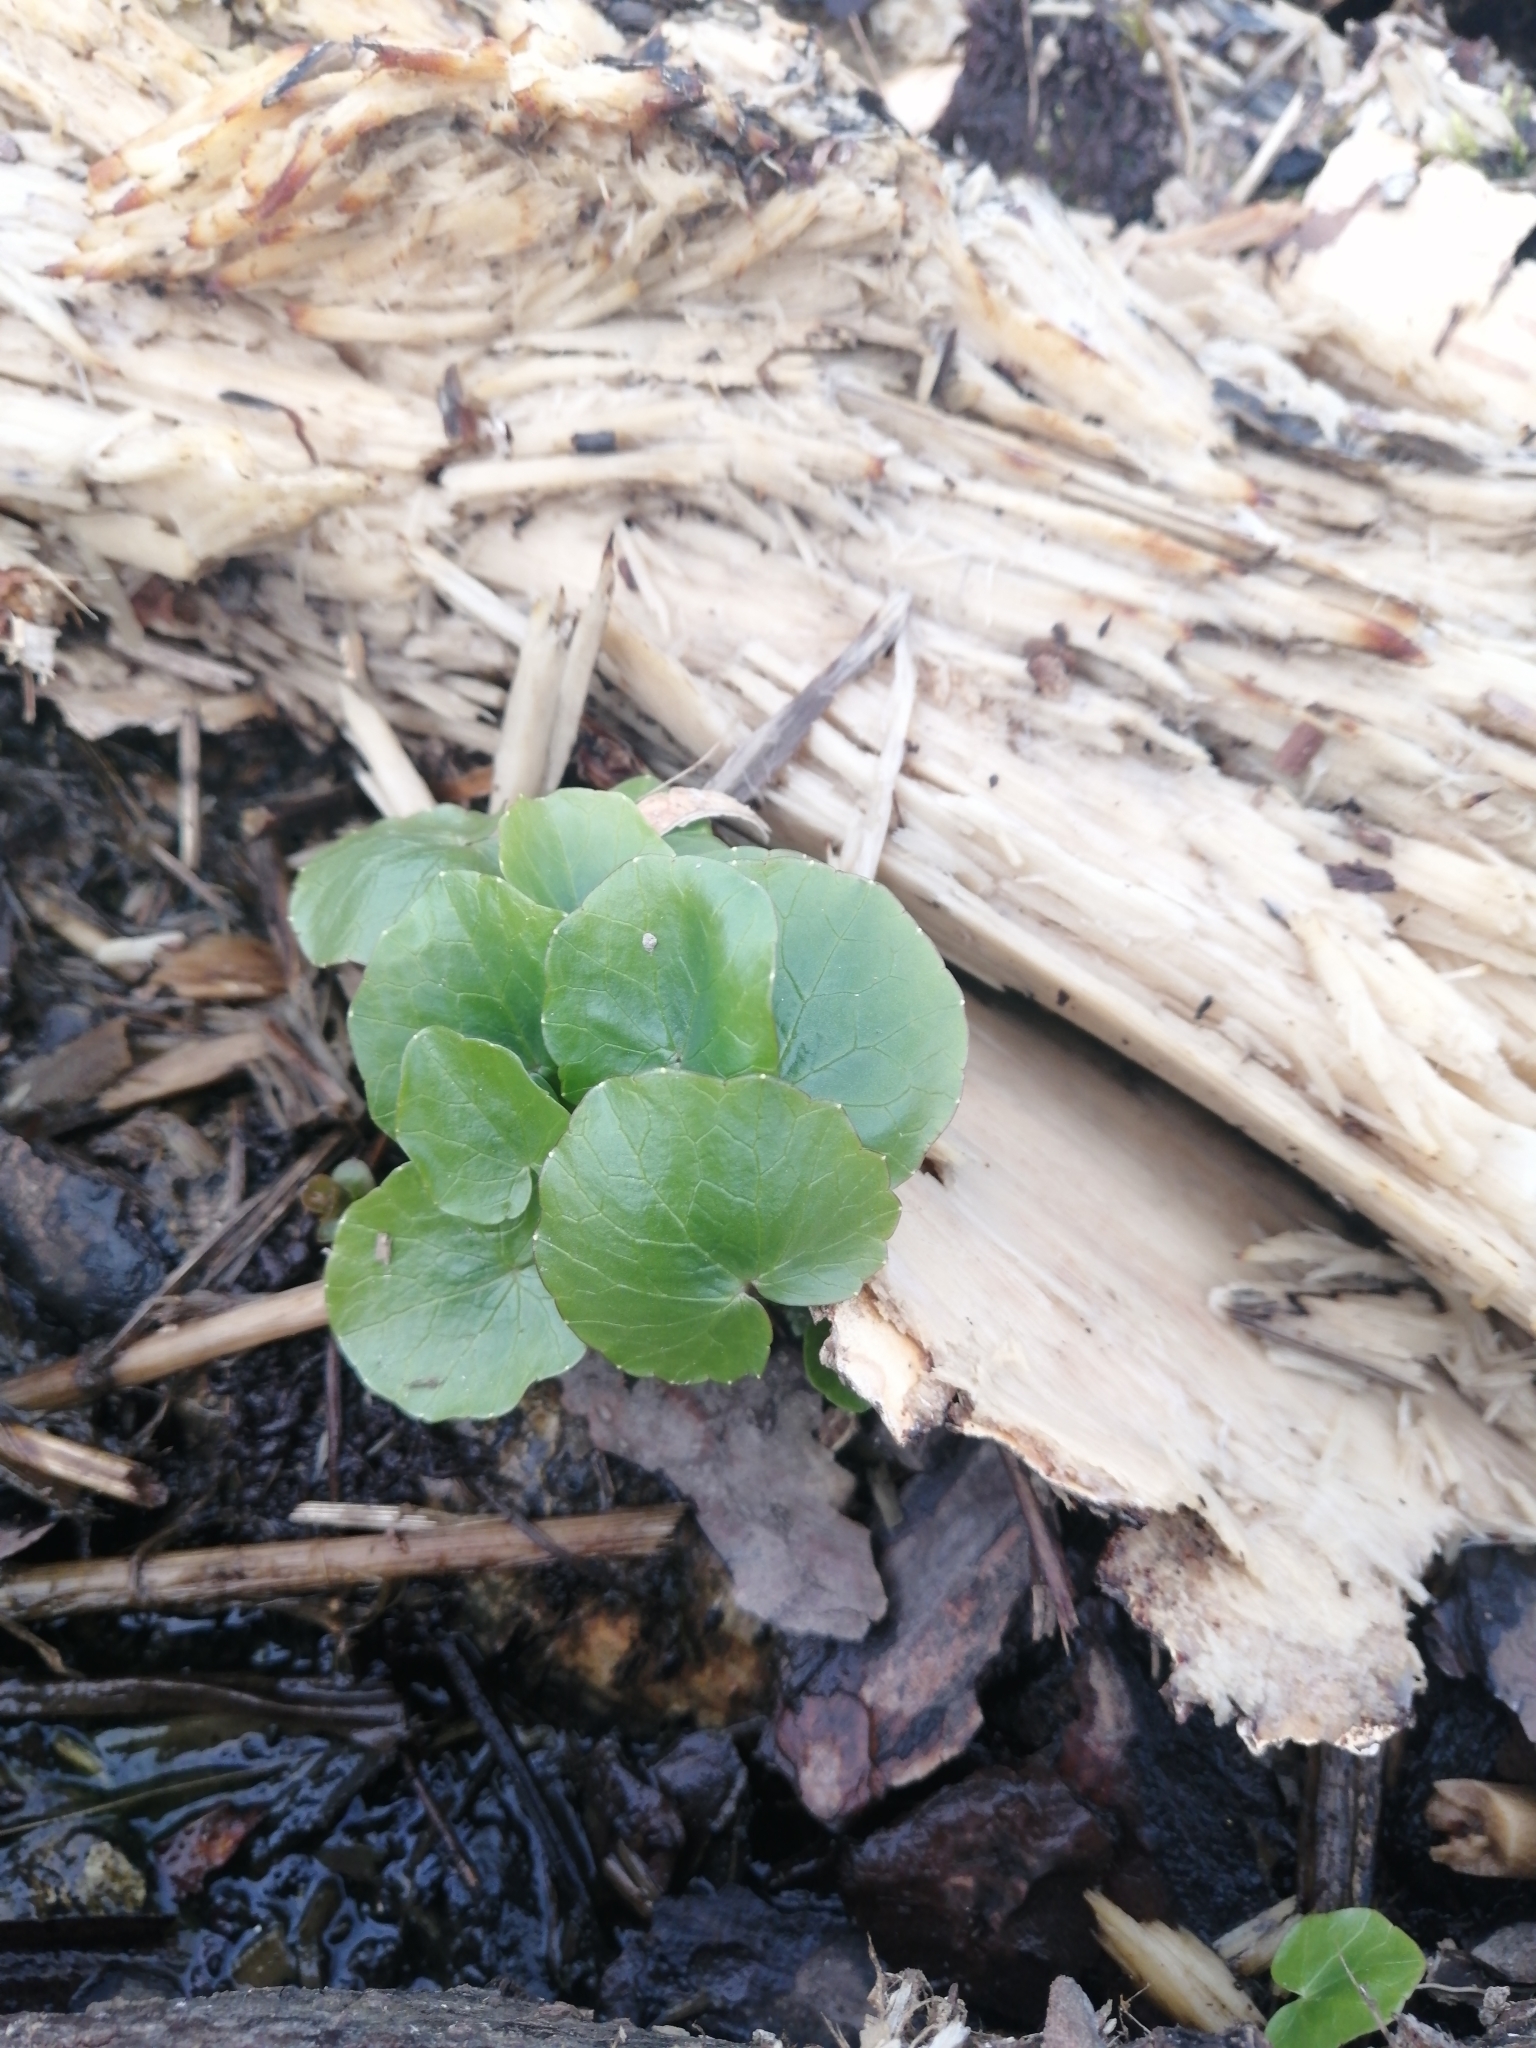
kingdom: Plantae
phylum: Tracheophyta
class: Magnoliopsida
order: Ranunculales
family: Ranunculaceae
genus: Ficaria
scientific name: Ficaria verna
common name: Lesser celandine
